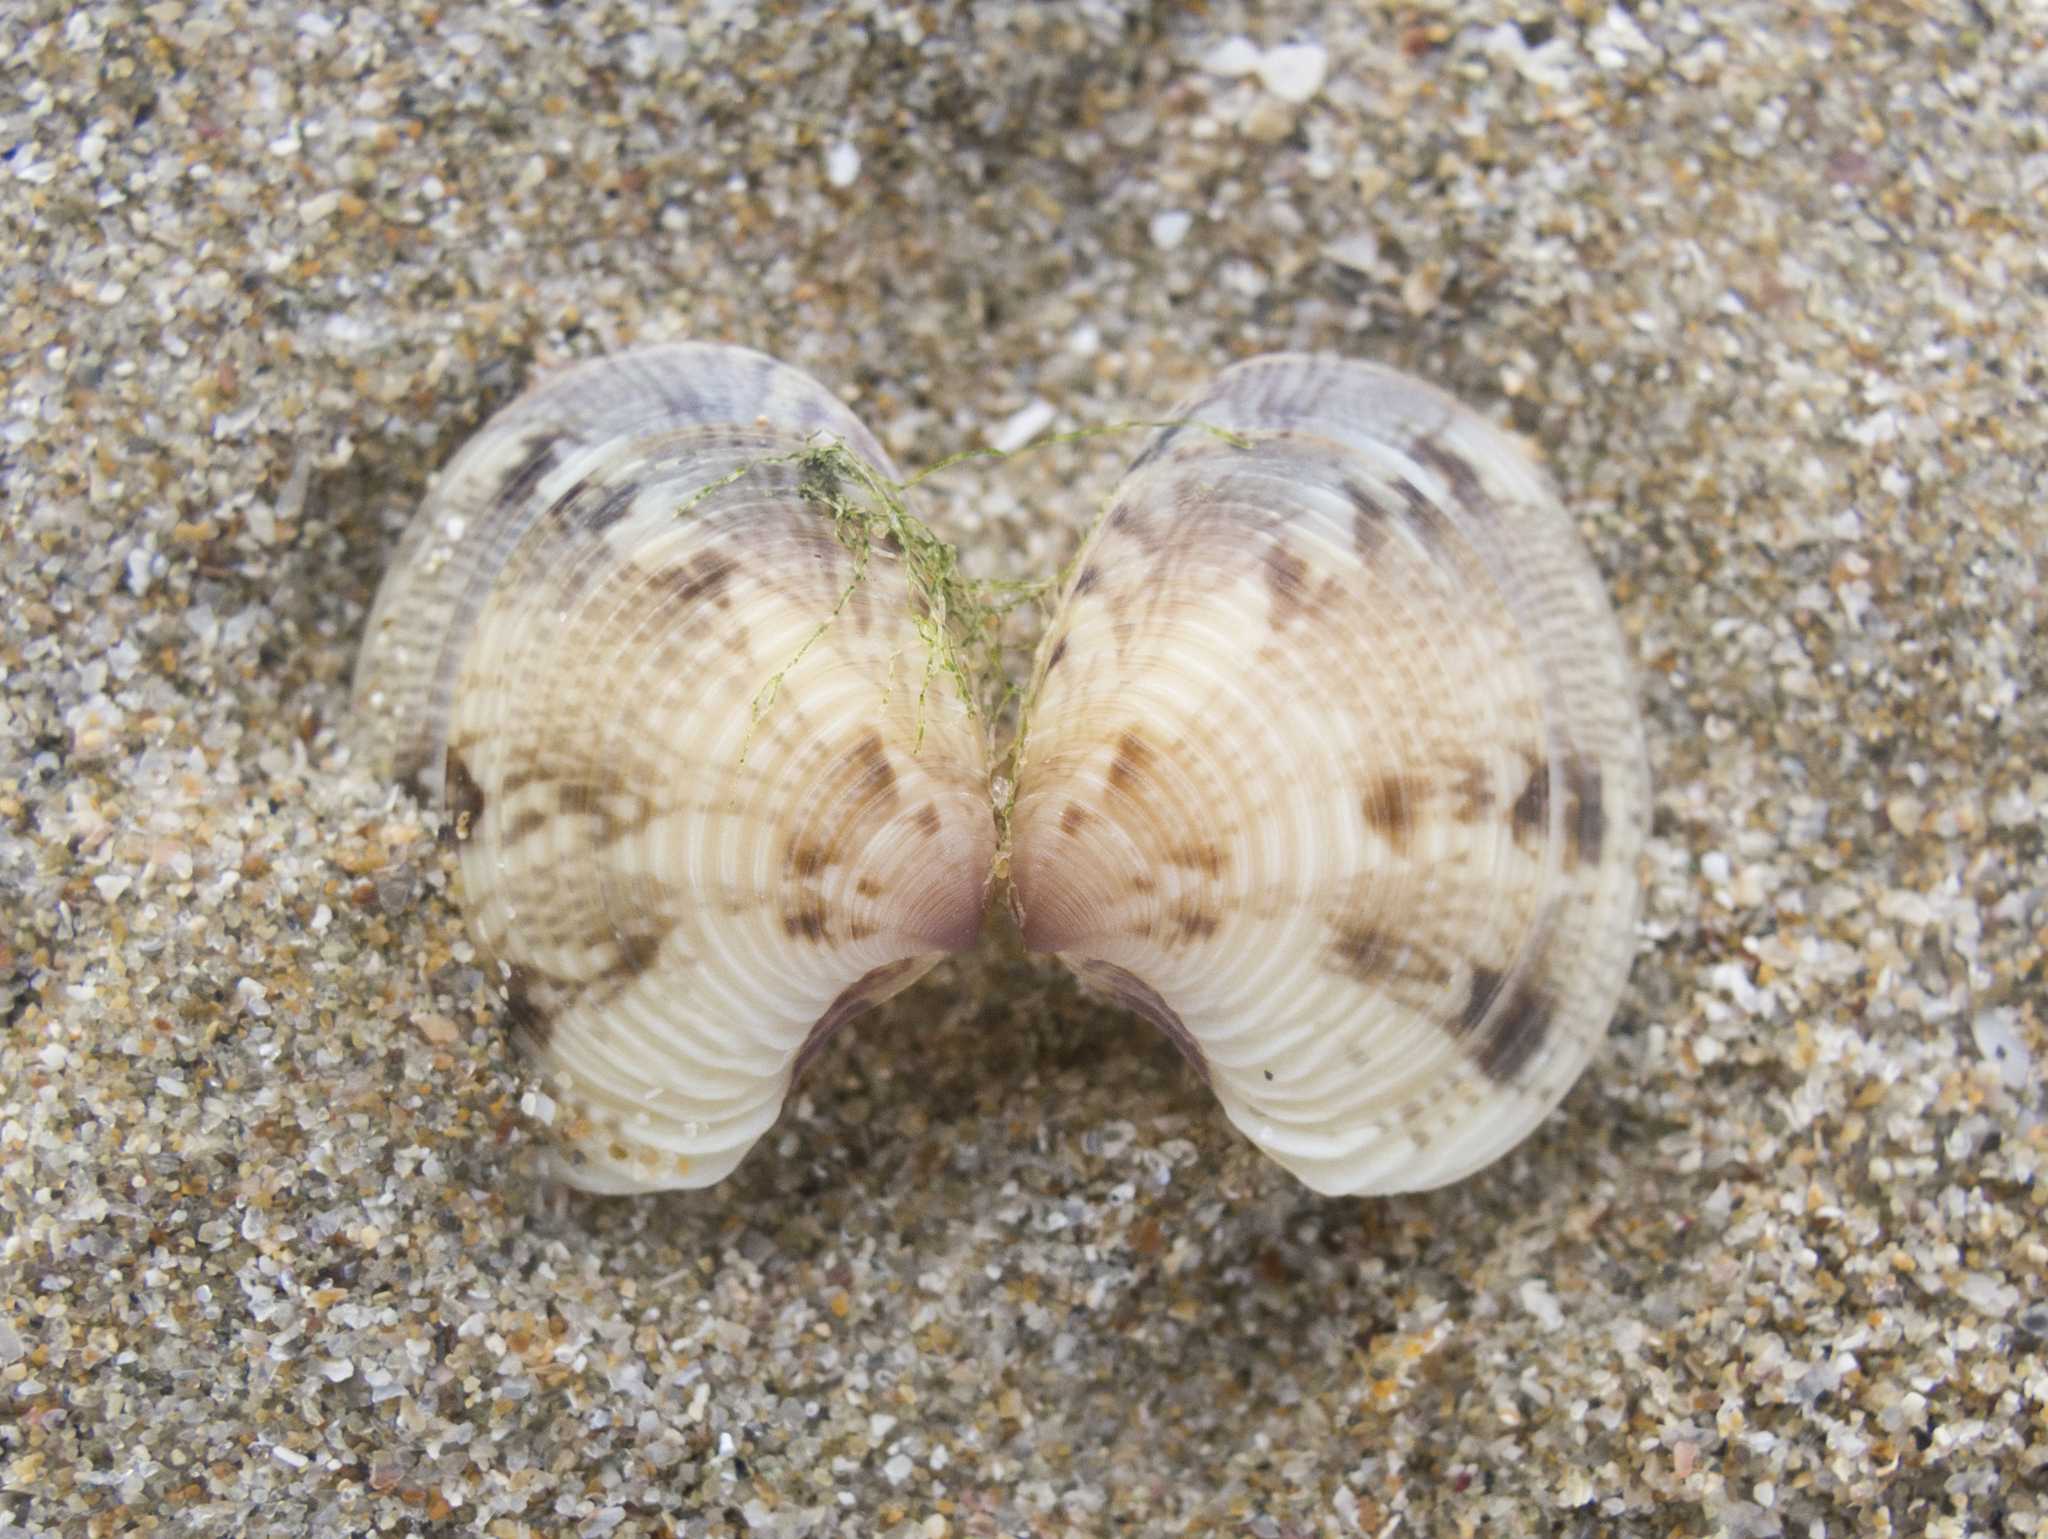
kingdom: Animalia
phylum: Mollusca
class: Bivalvia
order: Venerida
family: Veneridae
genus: Chamelea
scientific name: Chamelea gallina
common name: Chicken venus
